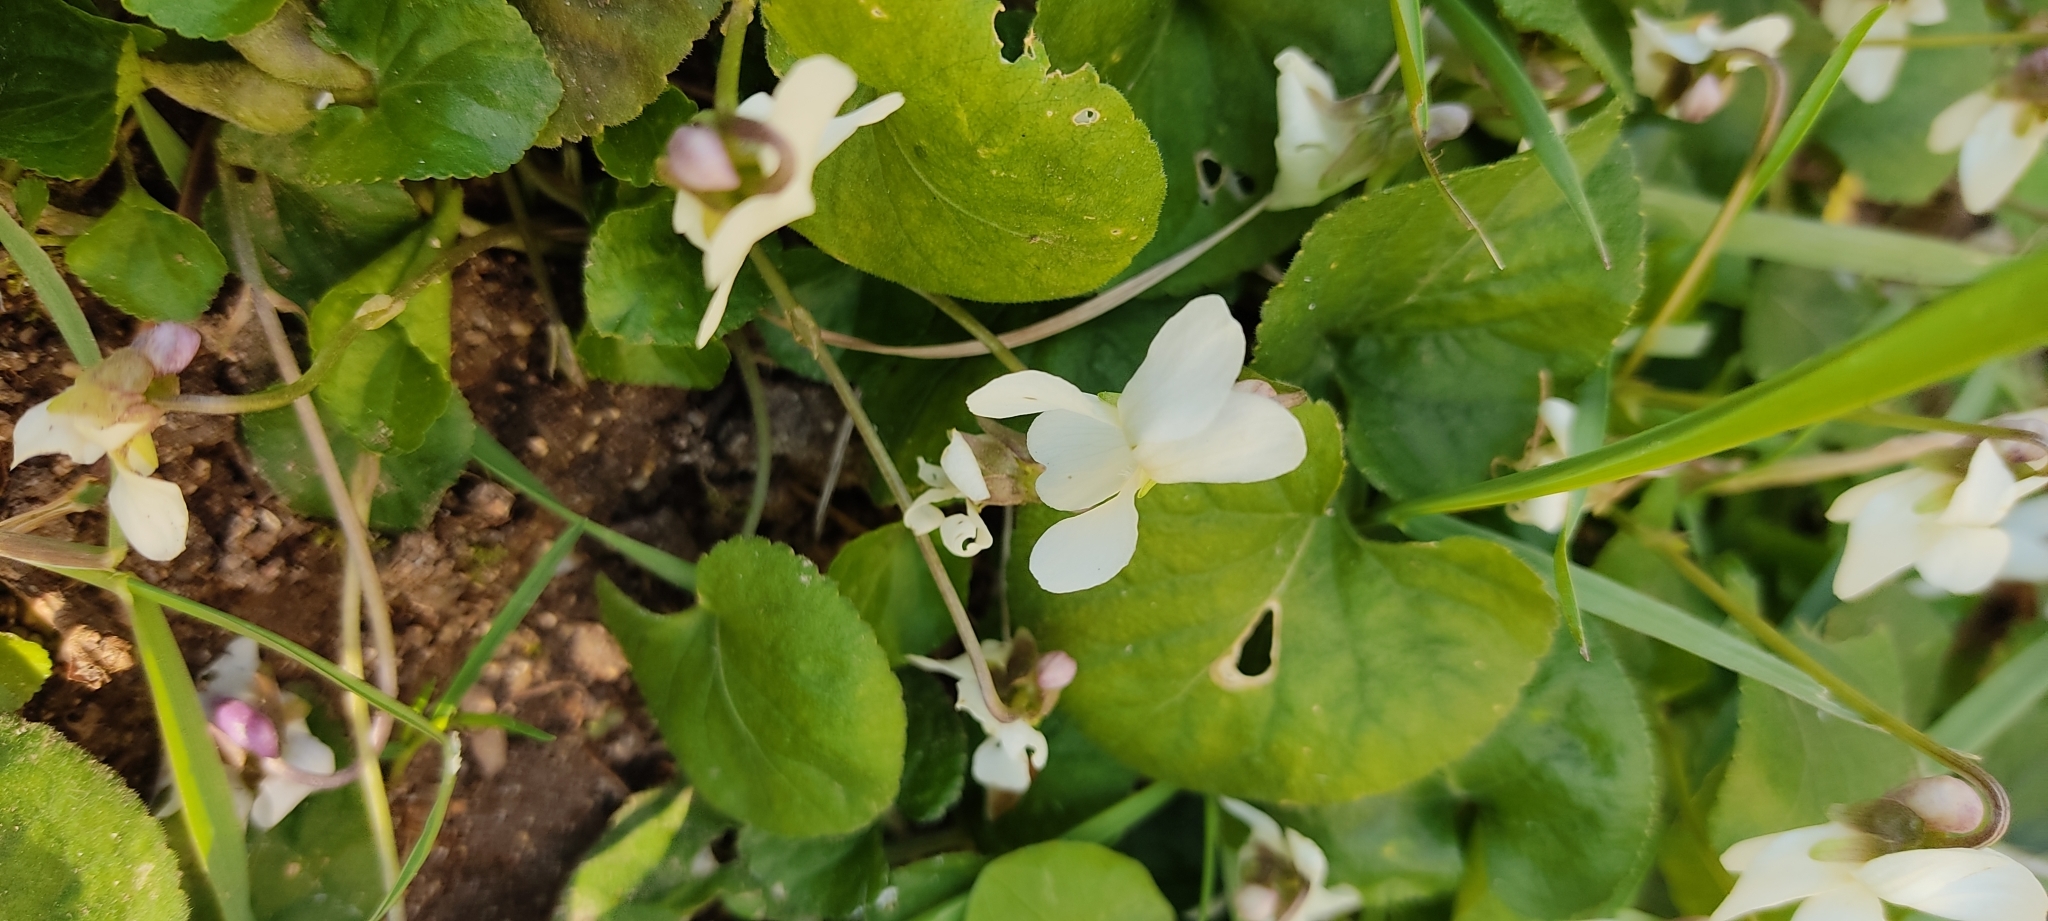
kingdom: Plantae
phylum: Tracheophyta
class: Magnoliopsida
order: Malpighiales
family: Violaceae
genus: Viola
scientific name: Viola alba
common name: White violet
